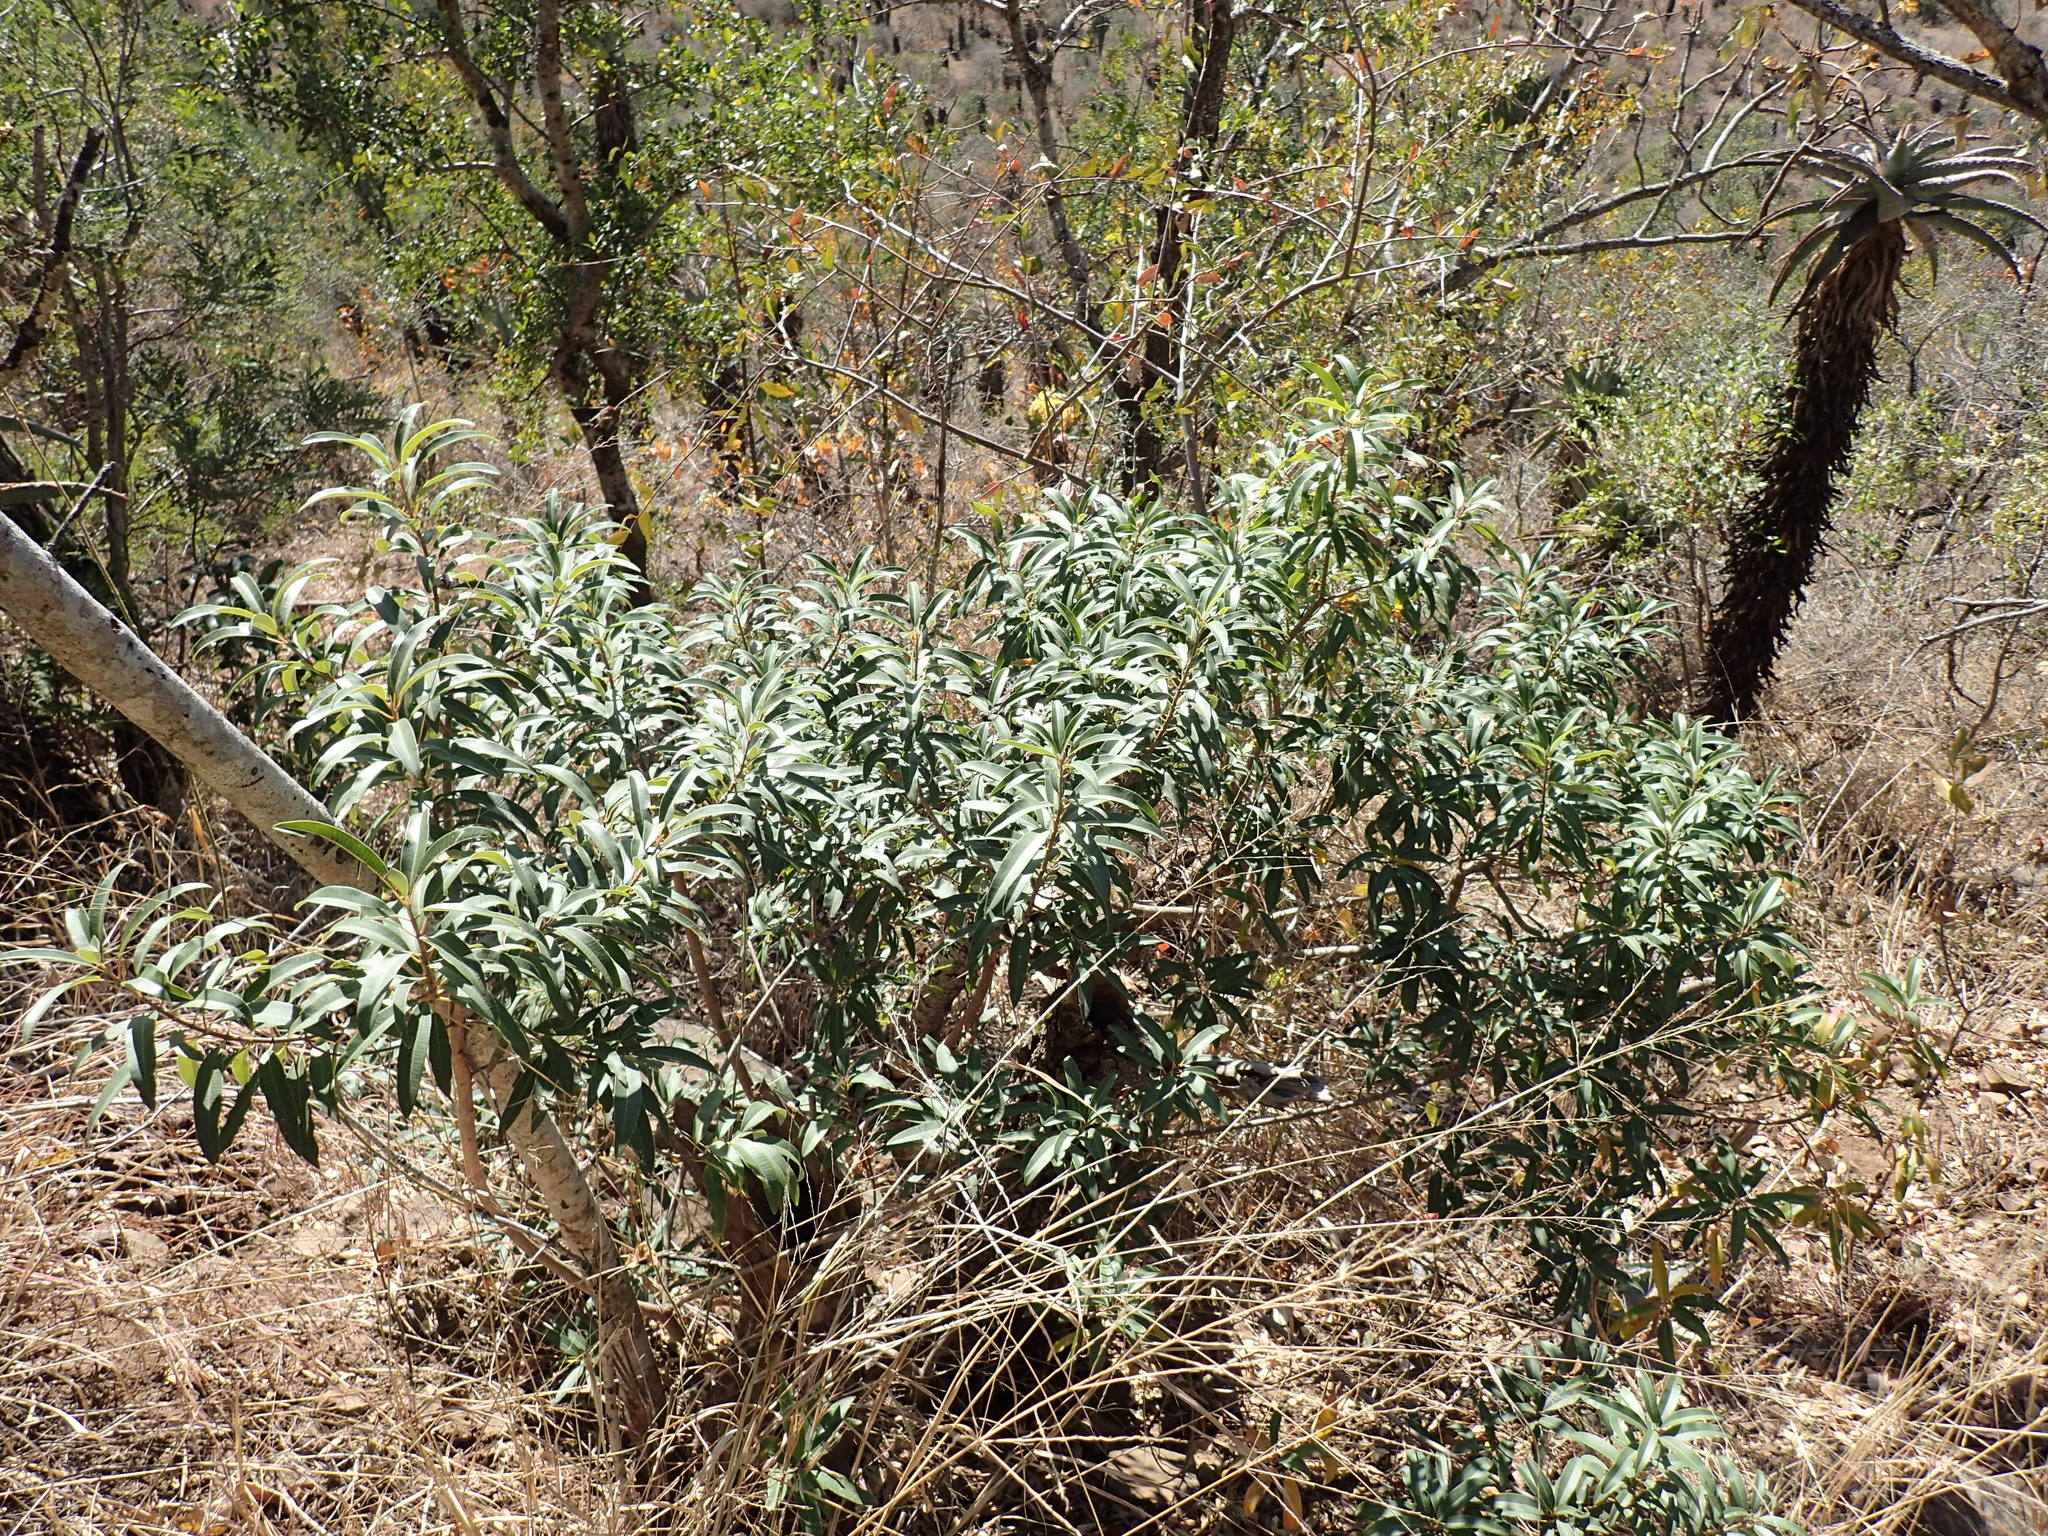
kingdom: Plantae
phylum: Tracheophyta
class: Magnoliopsida
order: Sapindales
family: Anacardiaceae
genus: Ozoroa
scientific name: Ozoroa engleri
